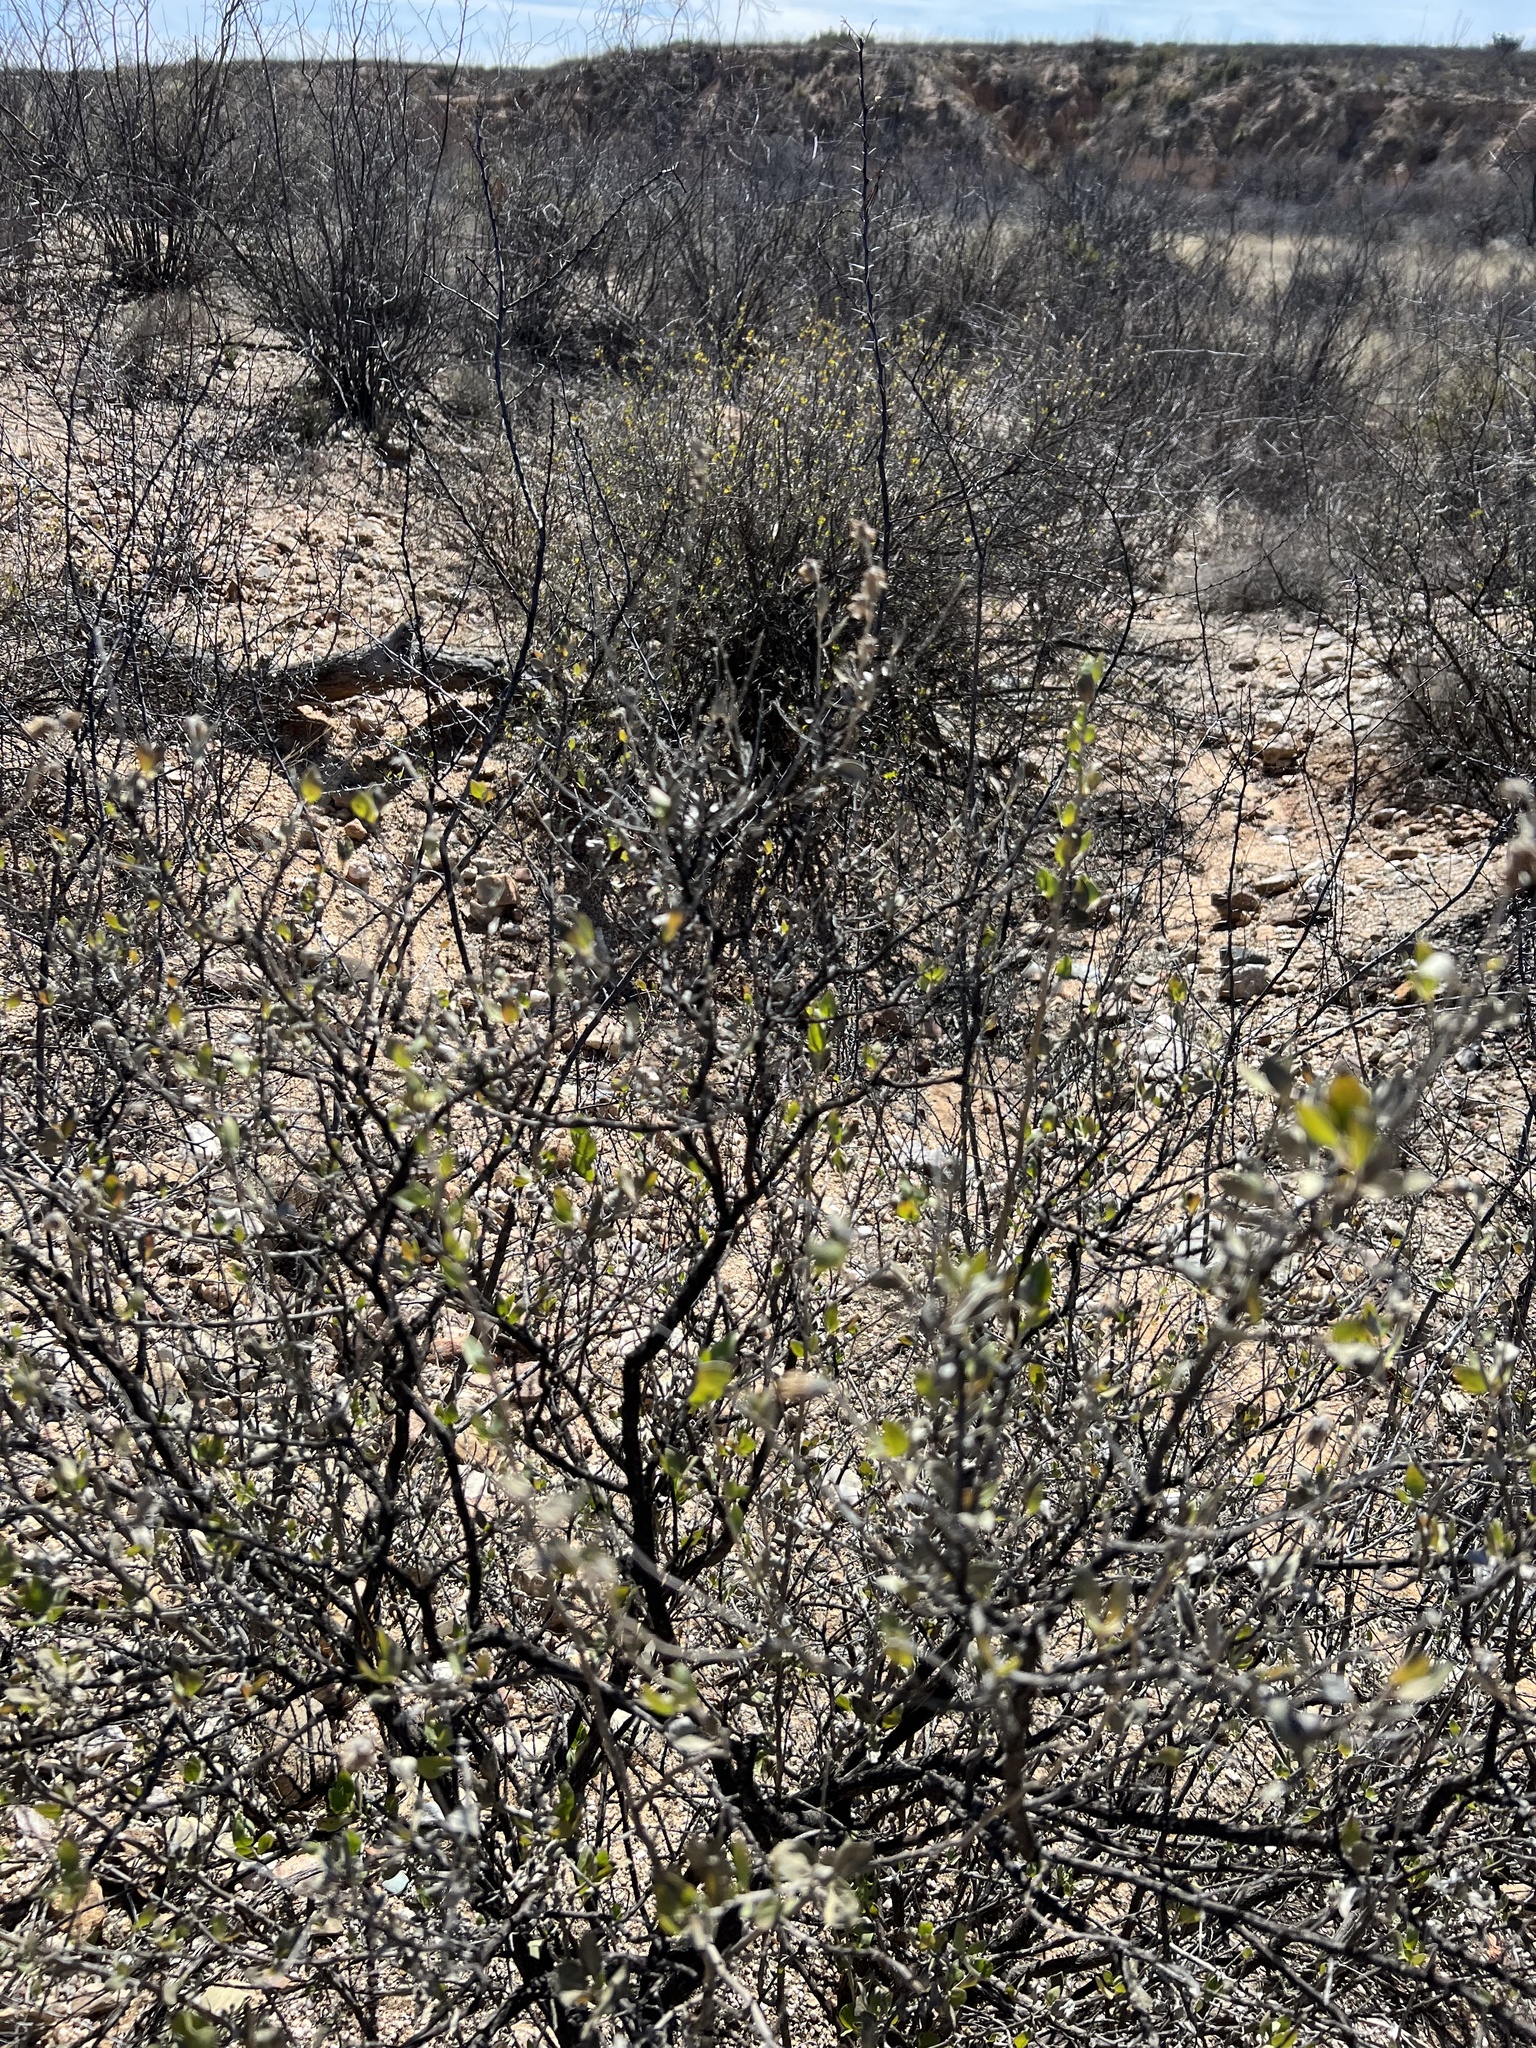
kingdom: Plantae
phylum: Tracheophyta
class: Magnoliopsida
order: Asterales
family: Asteraceae
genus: Flourensia
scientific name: Flourensia cernua
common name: Varnishbush
